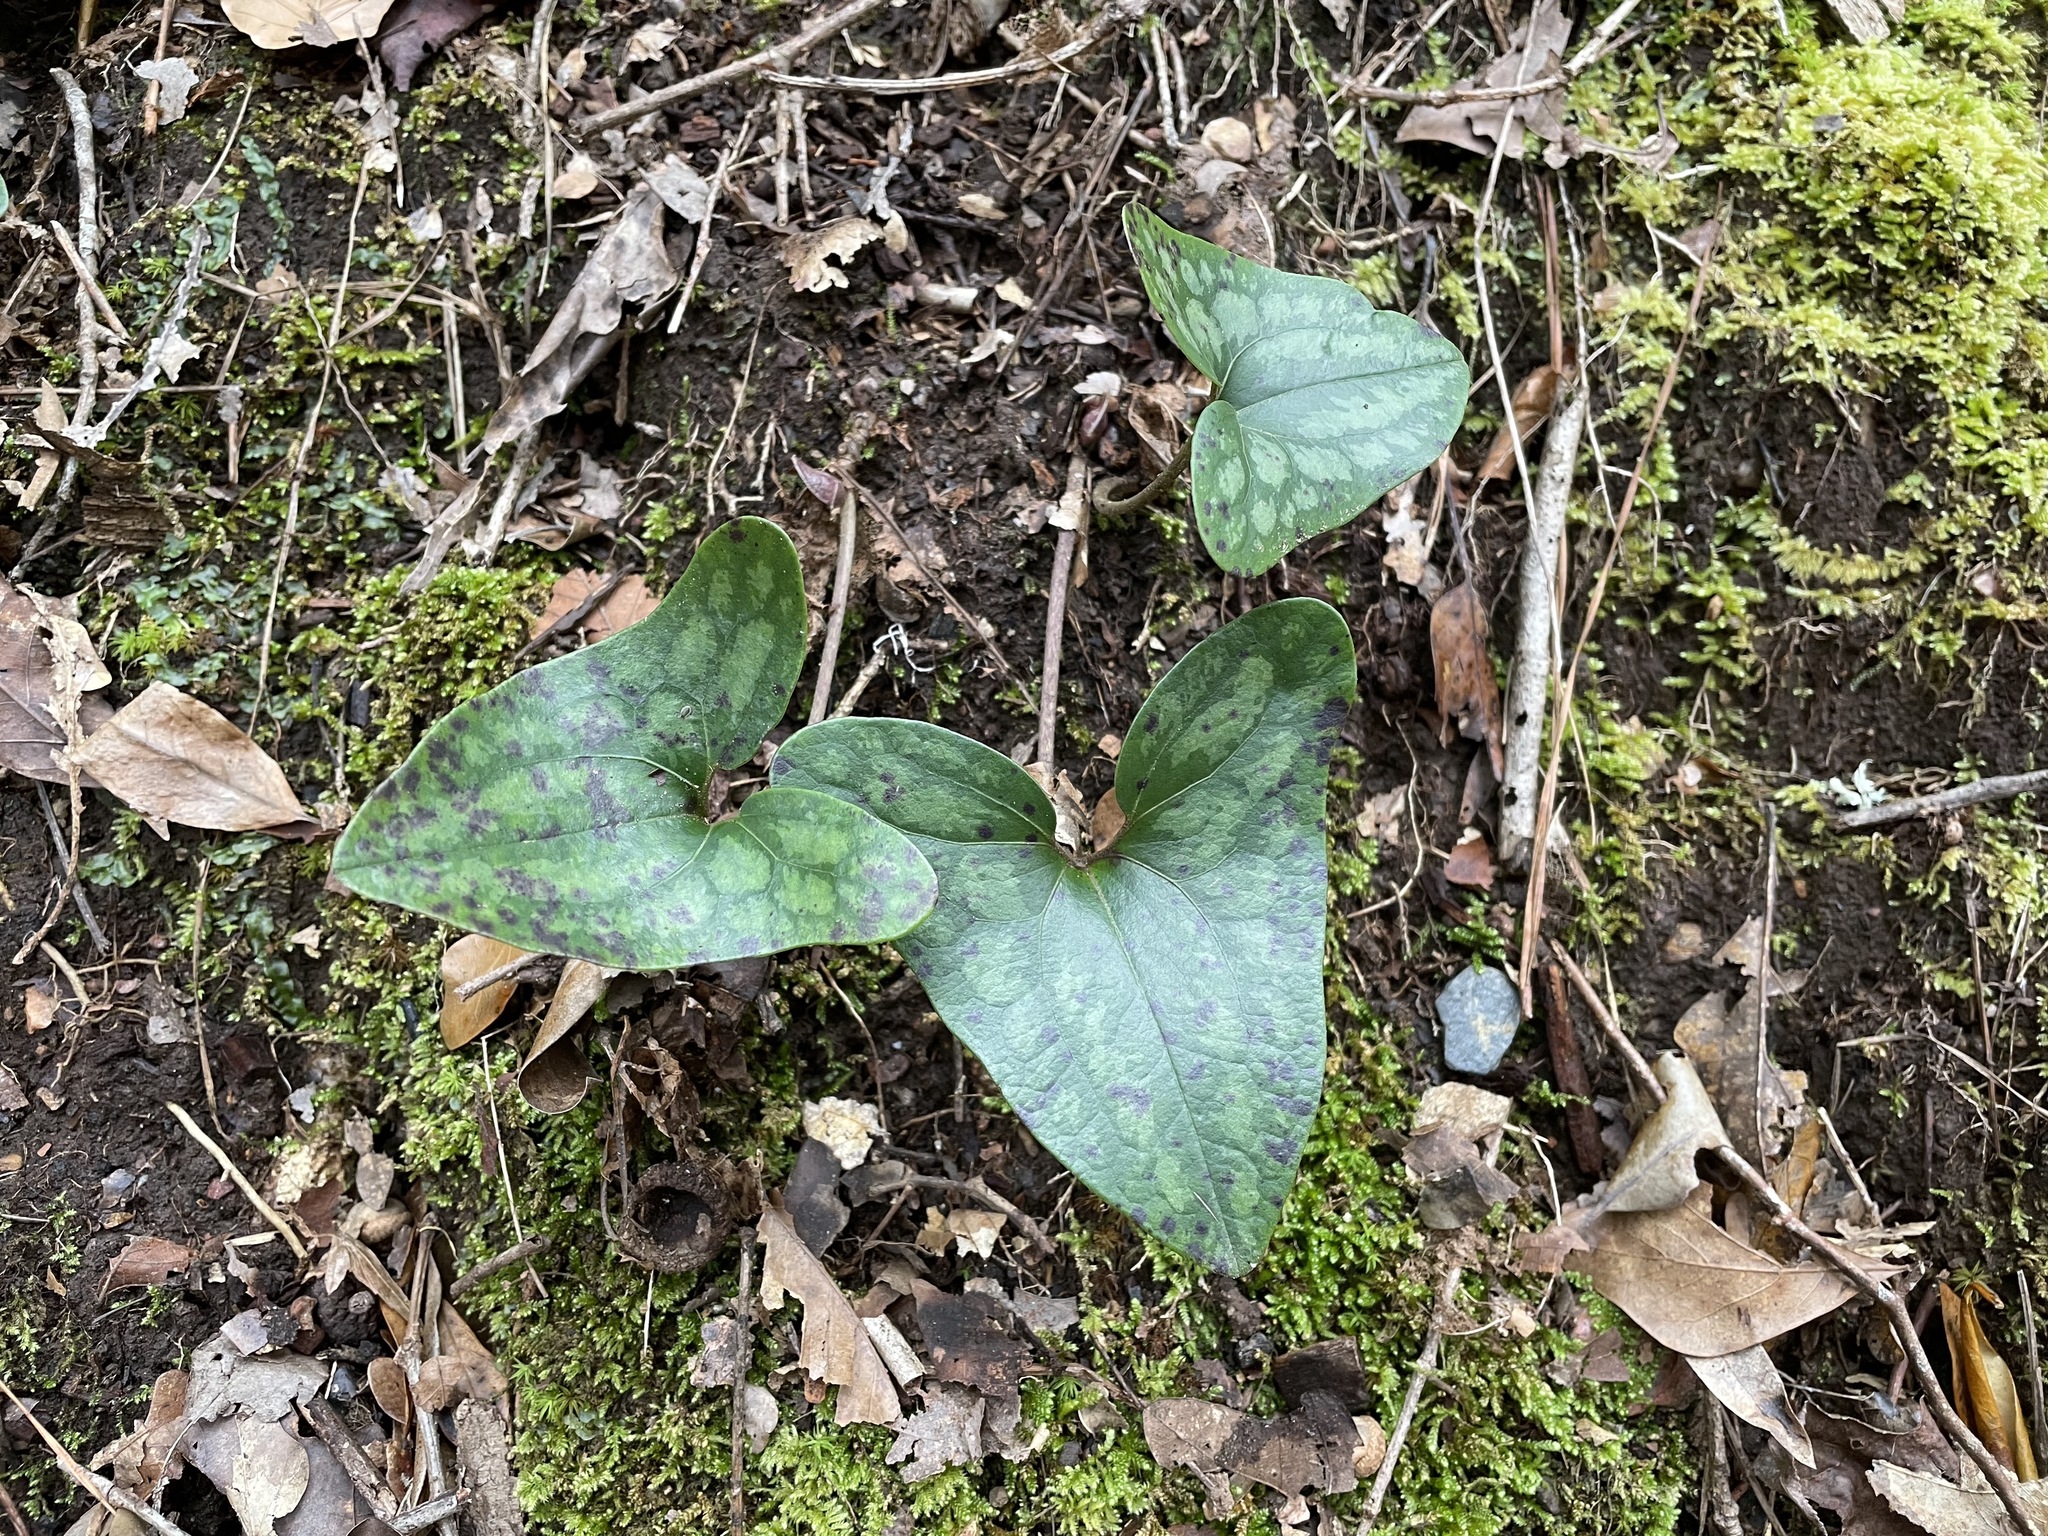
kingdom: Plantae
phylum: Tracheophyta
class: Magnoliopsida
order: Piperales
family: Aristolochiaceae
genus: Hexastylis
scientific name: Hexastylis arifolia
